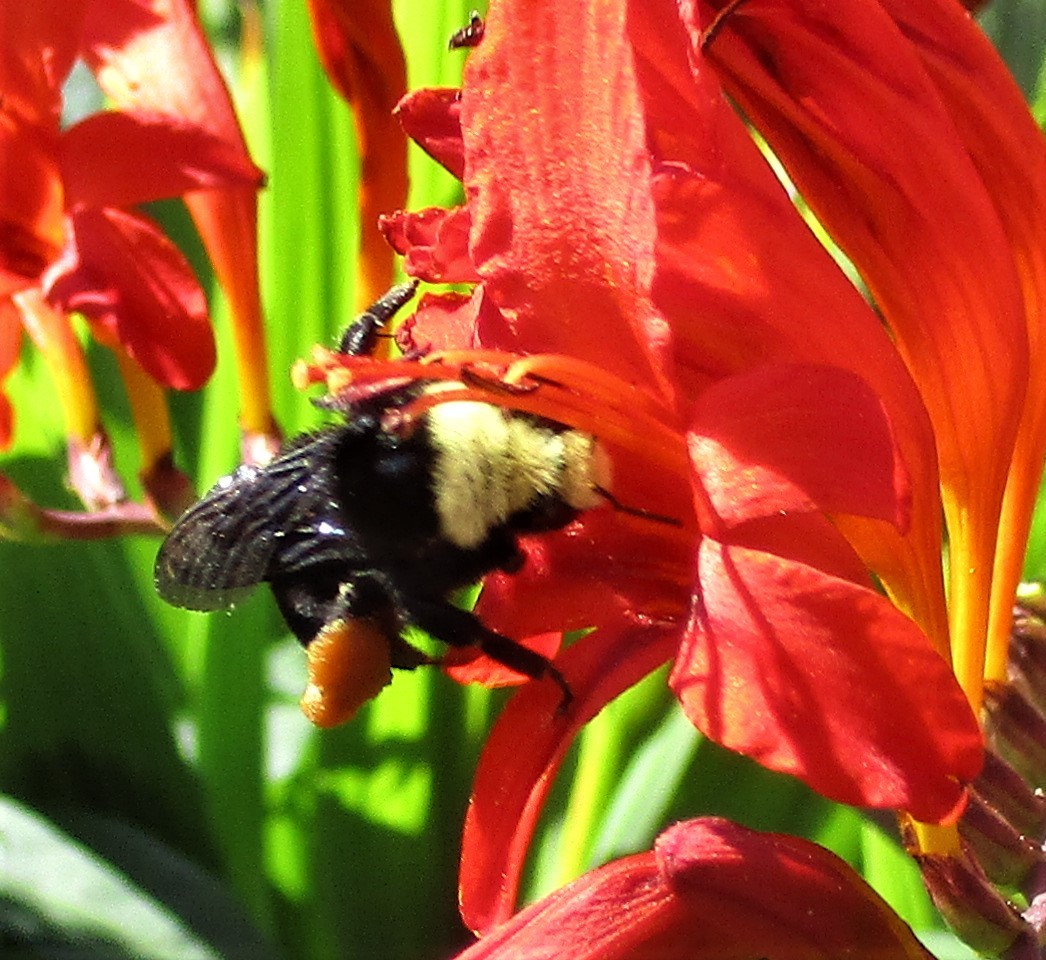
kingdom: Animalia
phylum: Arthropoda
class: Insecta
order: Hymenoptera
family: Apidae
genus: Bombus
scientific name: Bombus vosnesenskii
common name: Vosnesensky bumble bee
